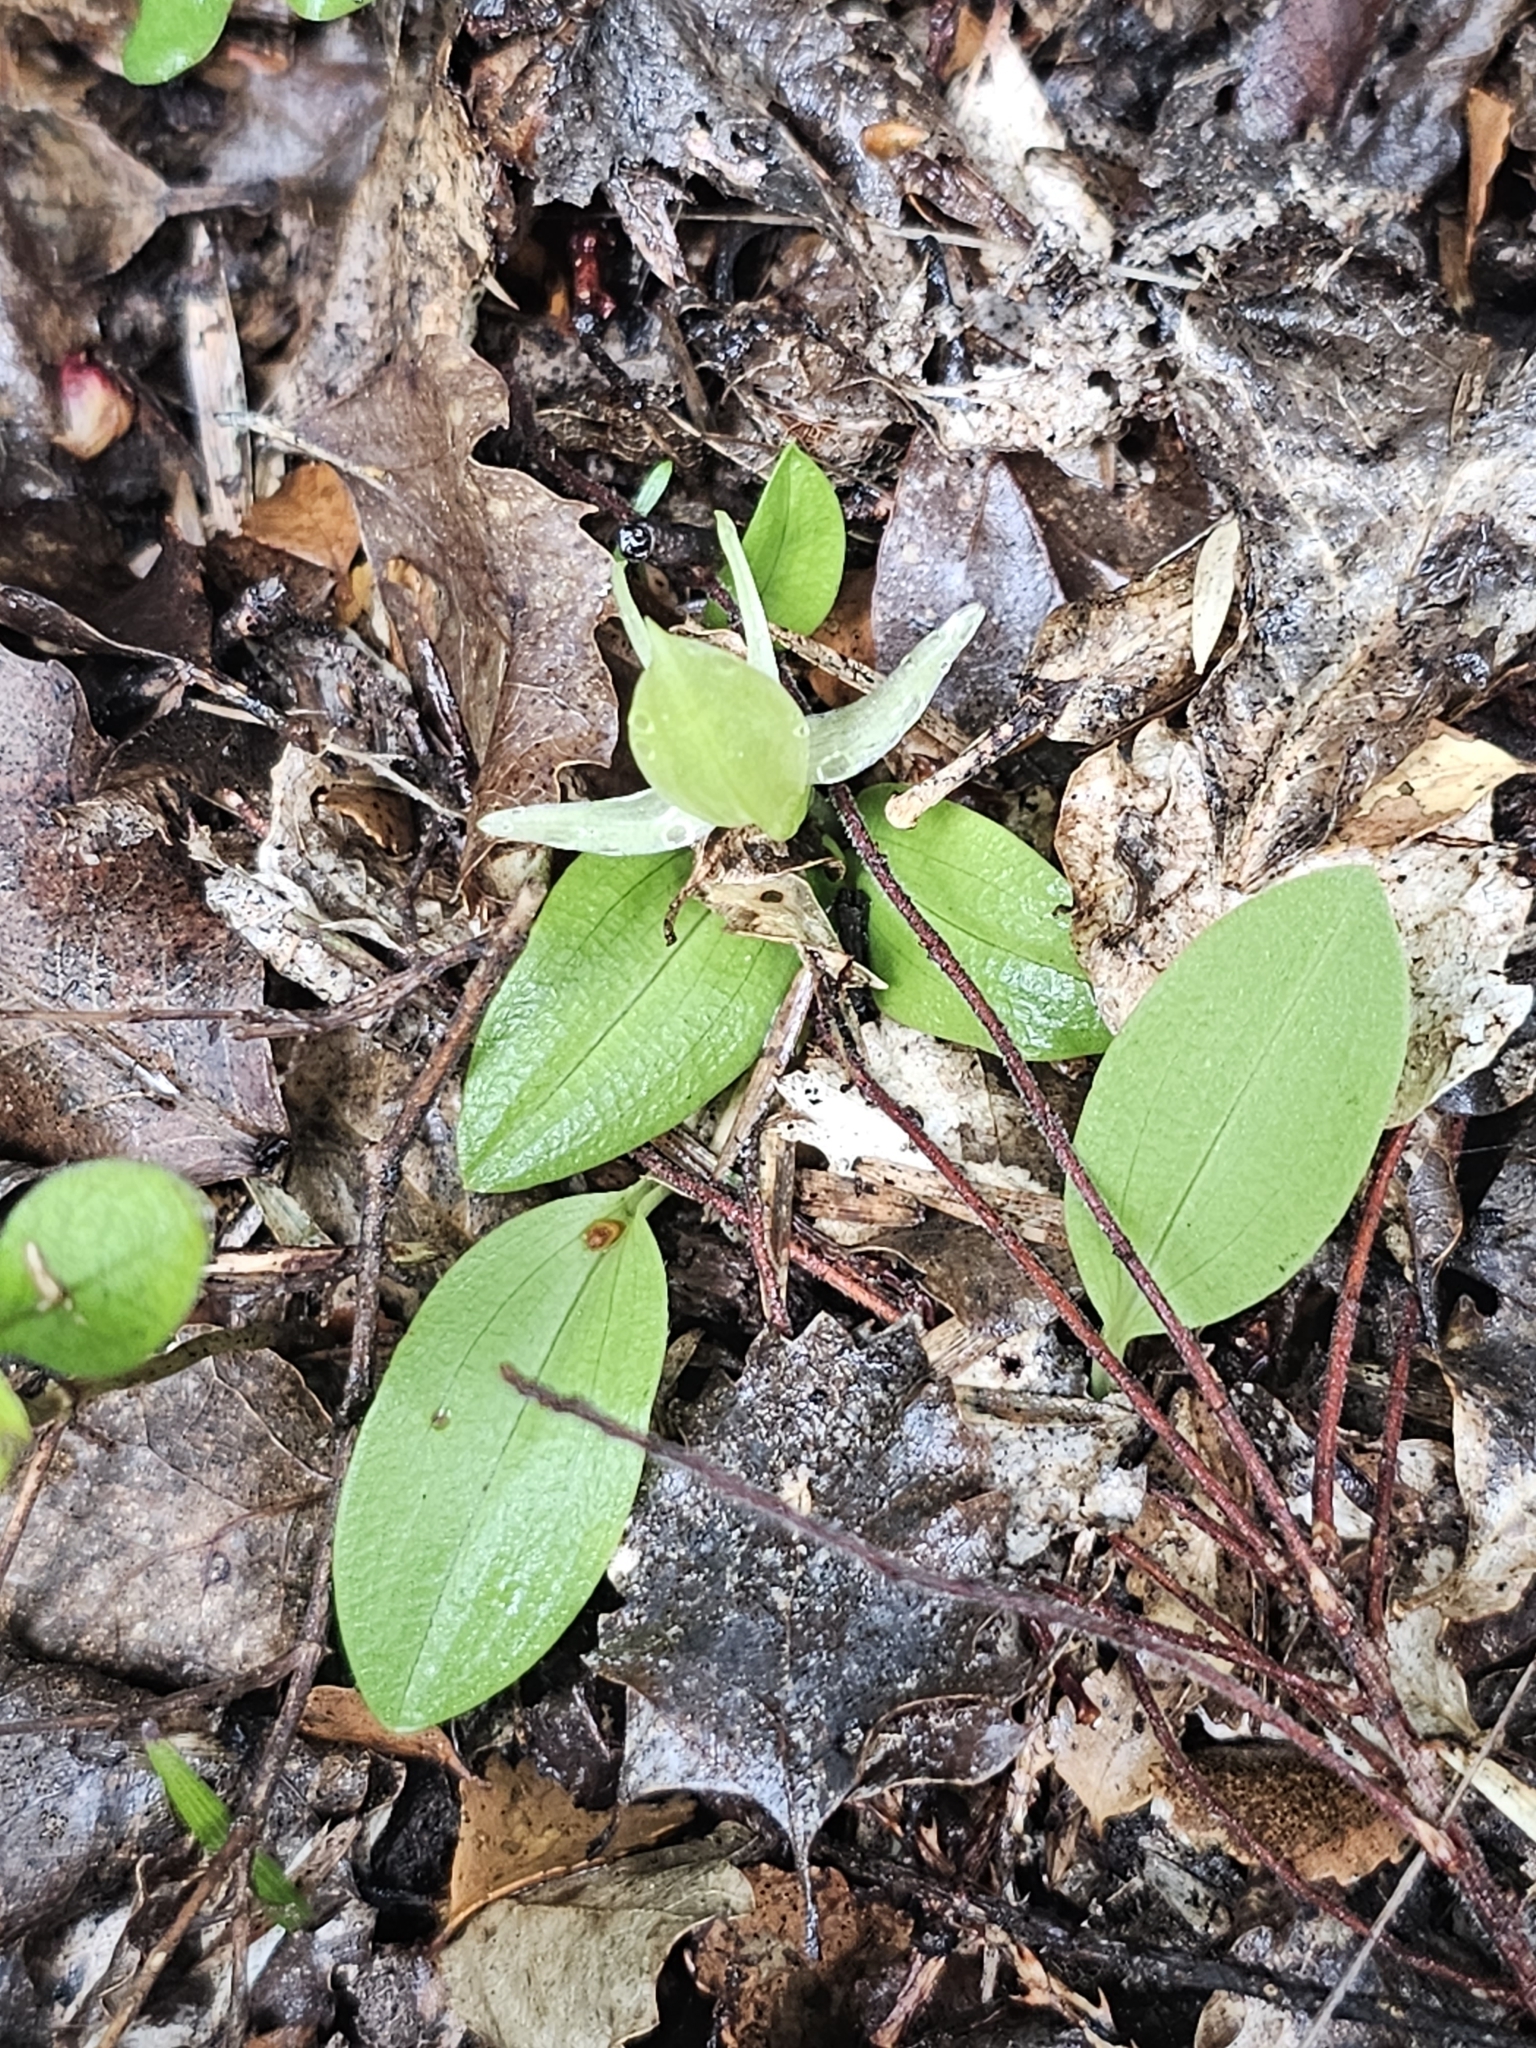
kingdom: Plantae
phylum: Tracheophyta
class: Liliopsida
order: Asparagales
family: Orchidaceae
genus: Chiloglottis
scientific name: Chiloglottis cornuta
